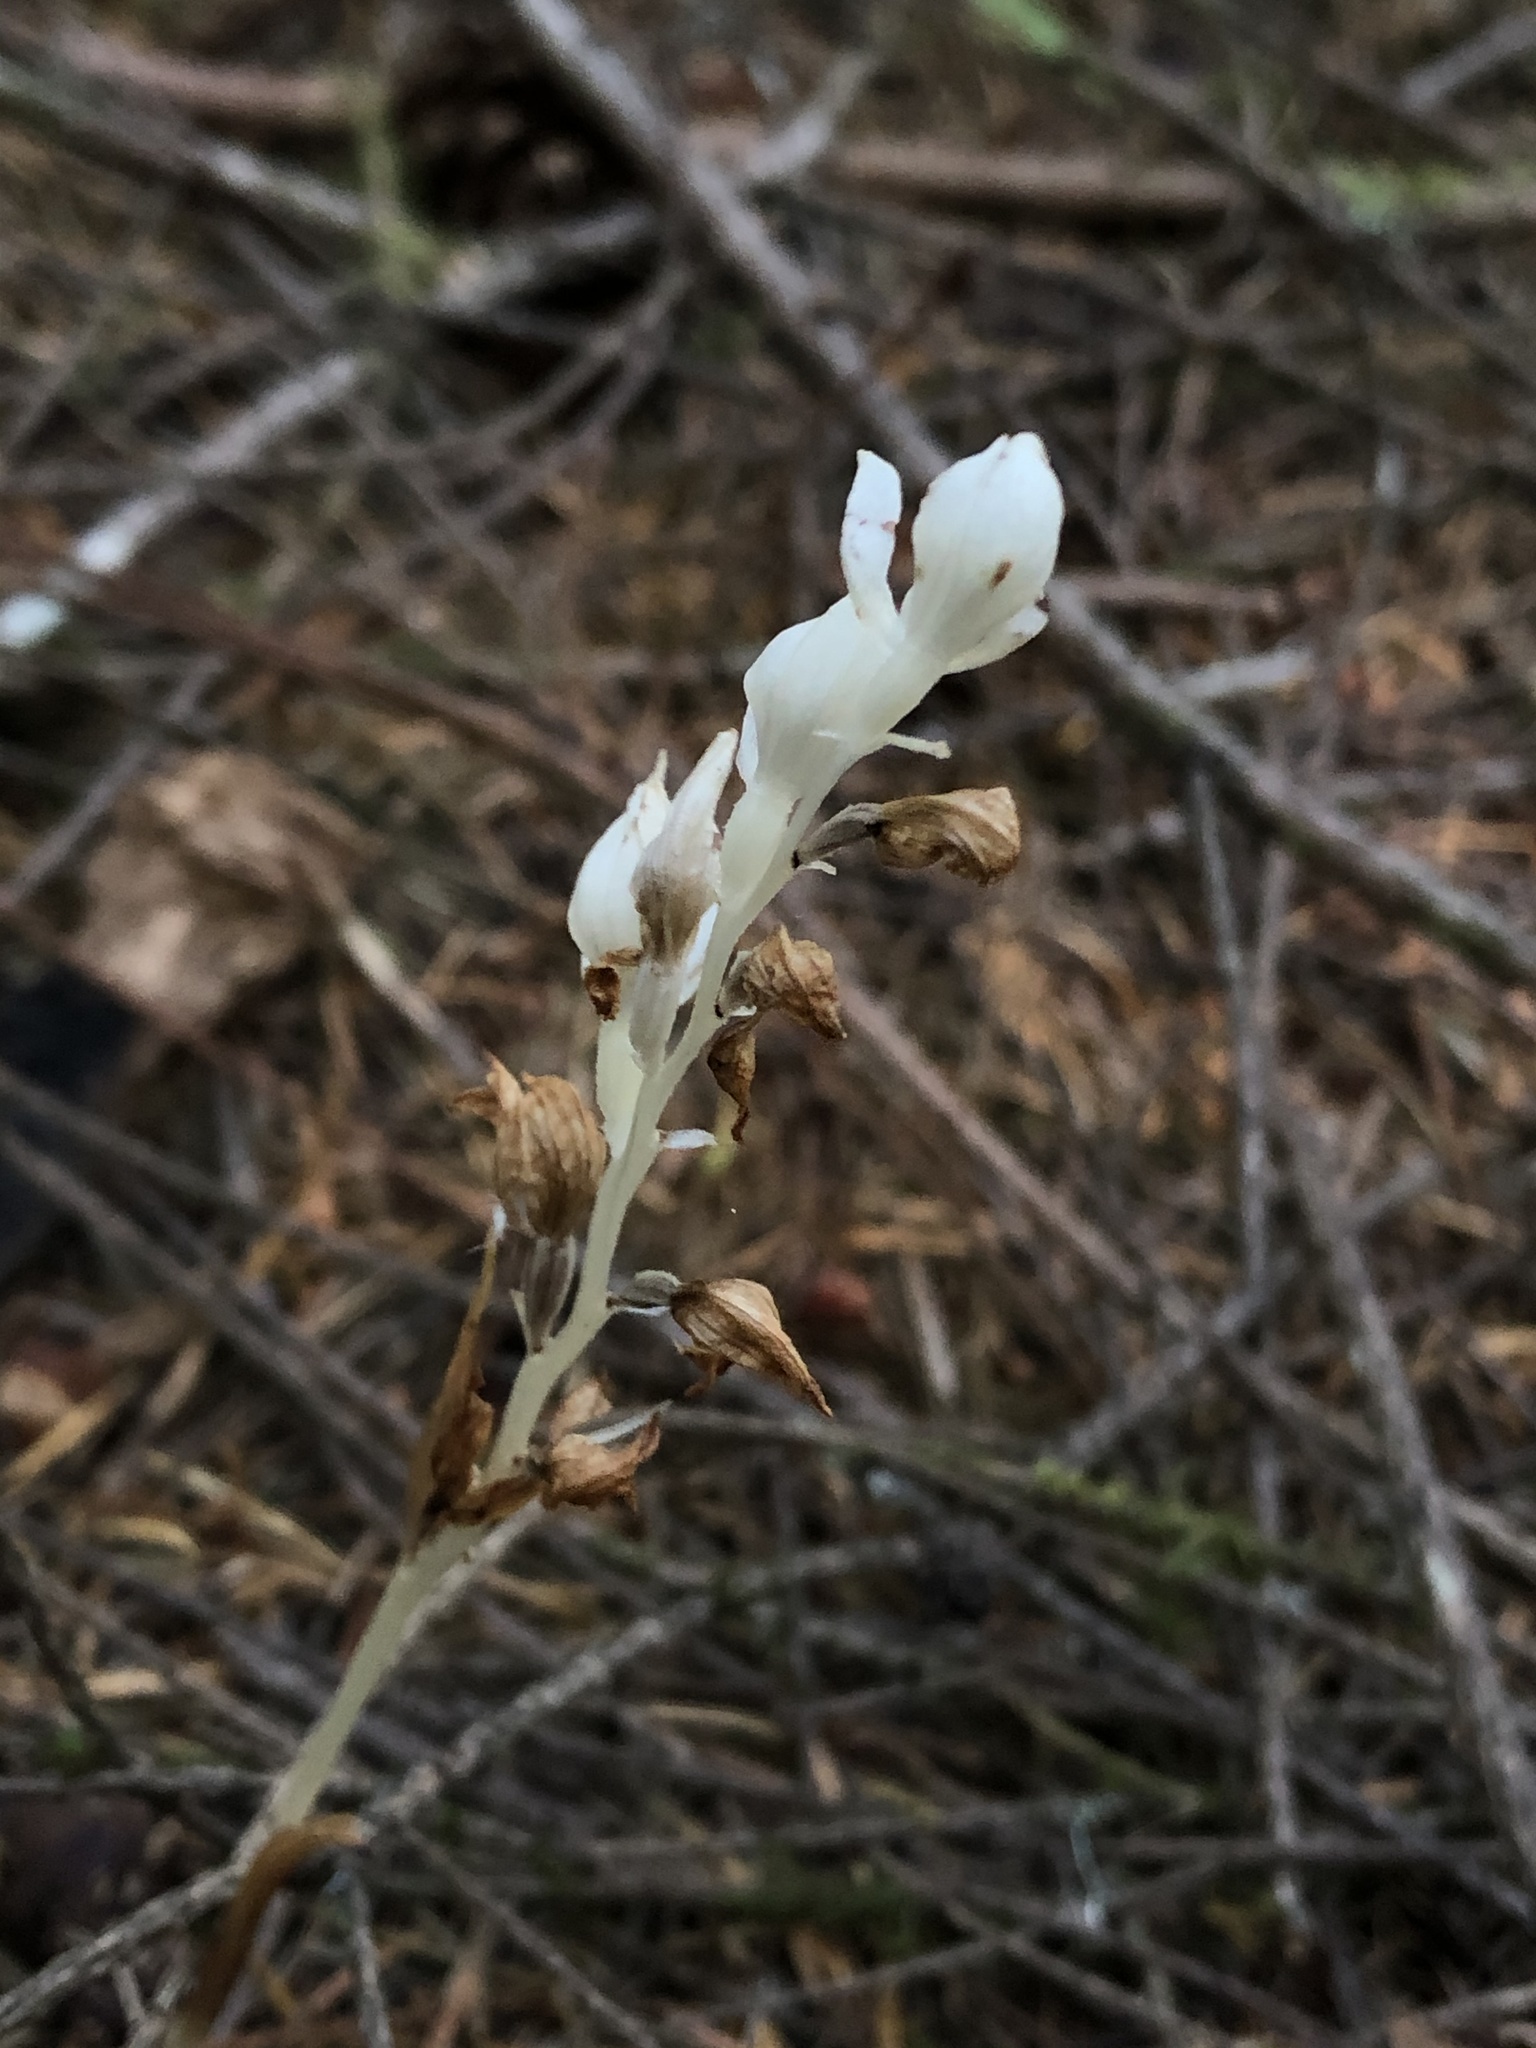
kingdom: Plantae
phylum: Tracheophyta
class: Liliopsida
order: Asparagales
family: Orchidaceae
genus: Cephalanthera
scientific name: Cephalanthera austiniae
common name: Phantom orchid
